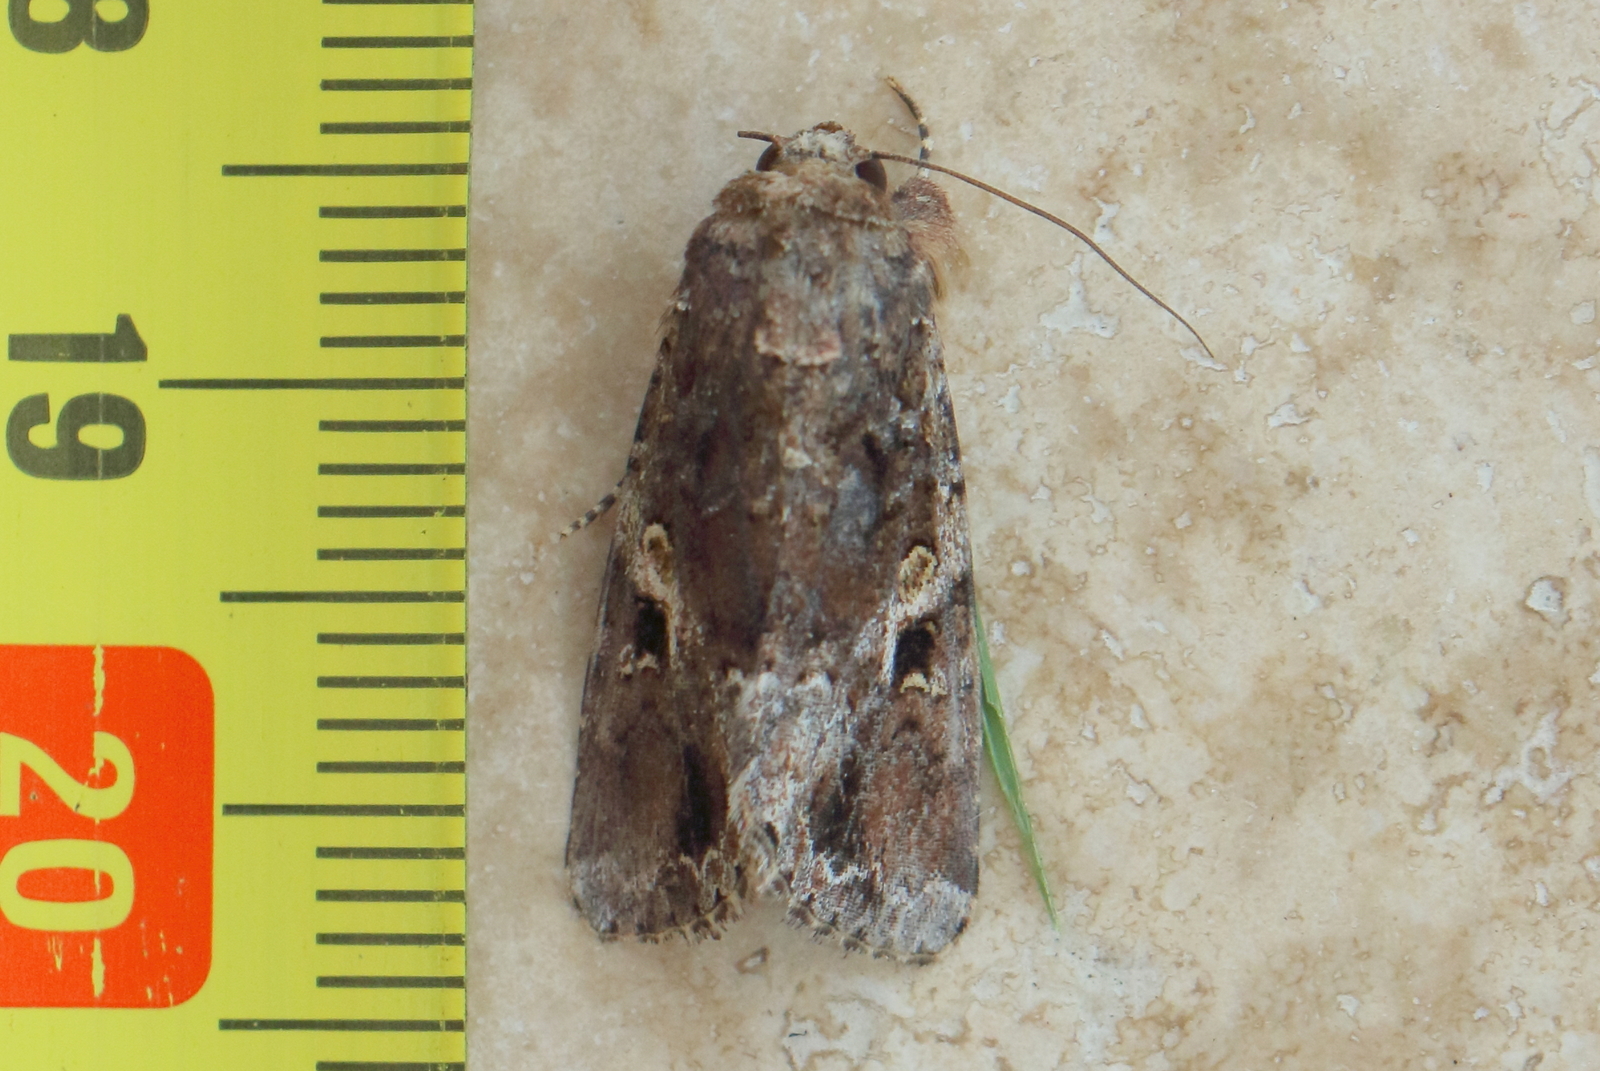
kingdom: Animalia
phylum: Arthropoda
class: Insecta
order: Lepidoptera
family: Noctuidae
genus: Spodoptera
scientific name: Spodoptera mauritia
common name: Lawn armyworm
